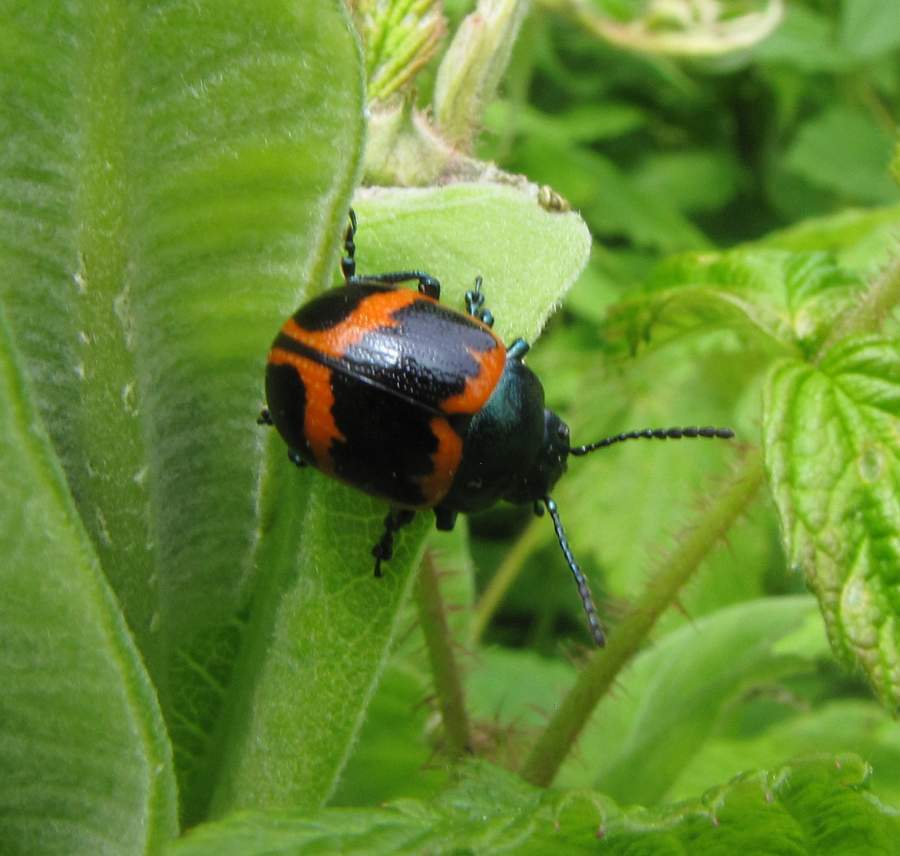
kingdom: Animalia
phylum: Arthropoda
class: Insecta
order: Coleoptera
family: Chrysomelidae
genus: Labidomera
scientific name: Labidomera clivicollis
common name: Swamp milkweed leaf beetle
